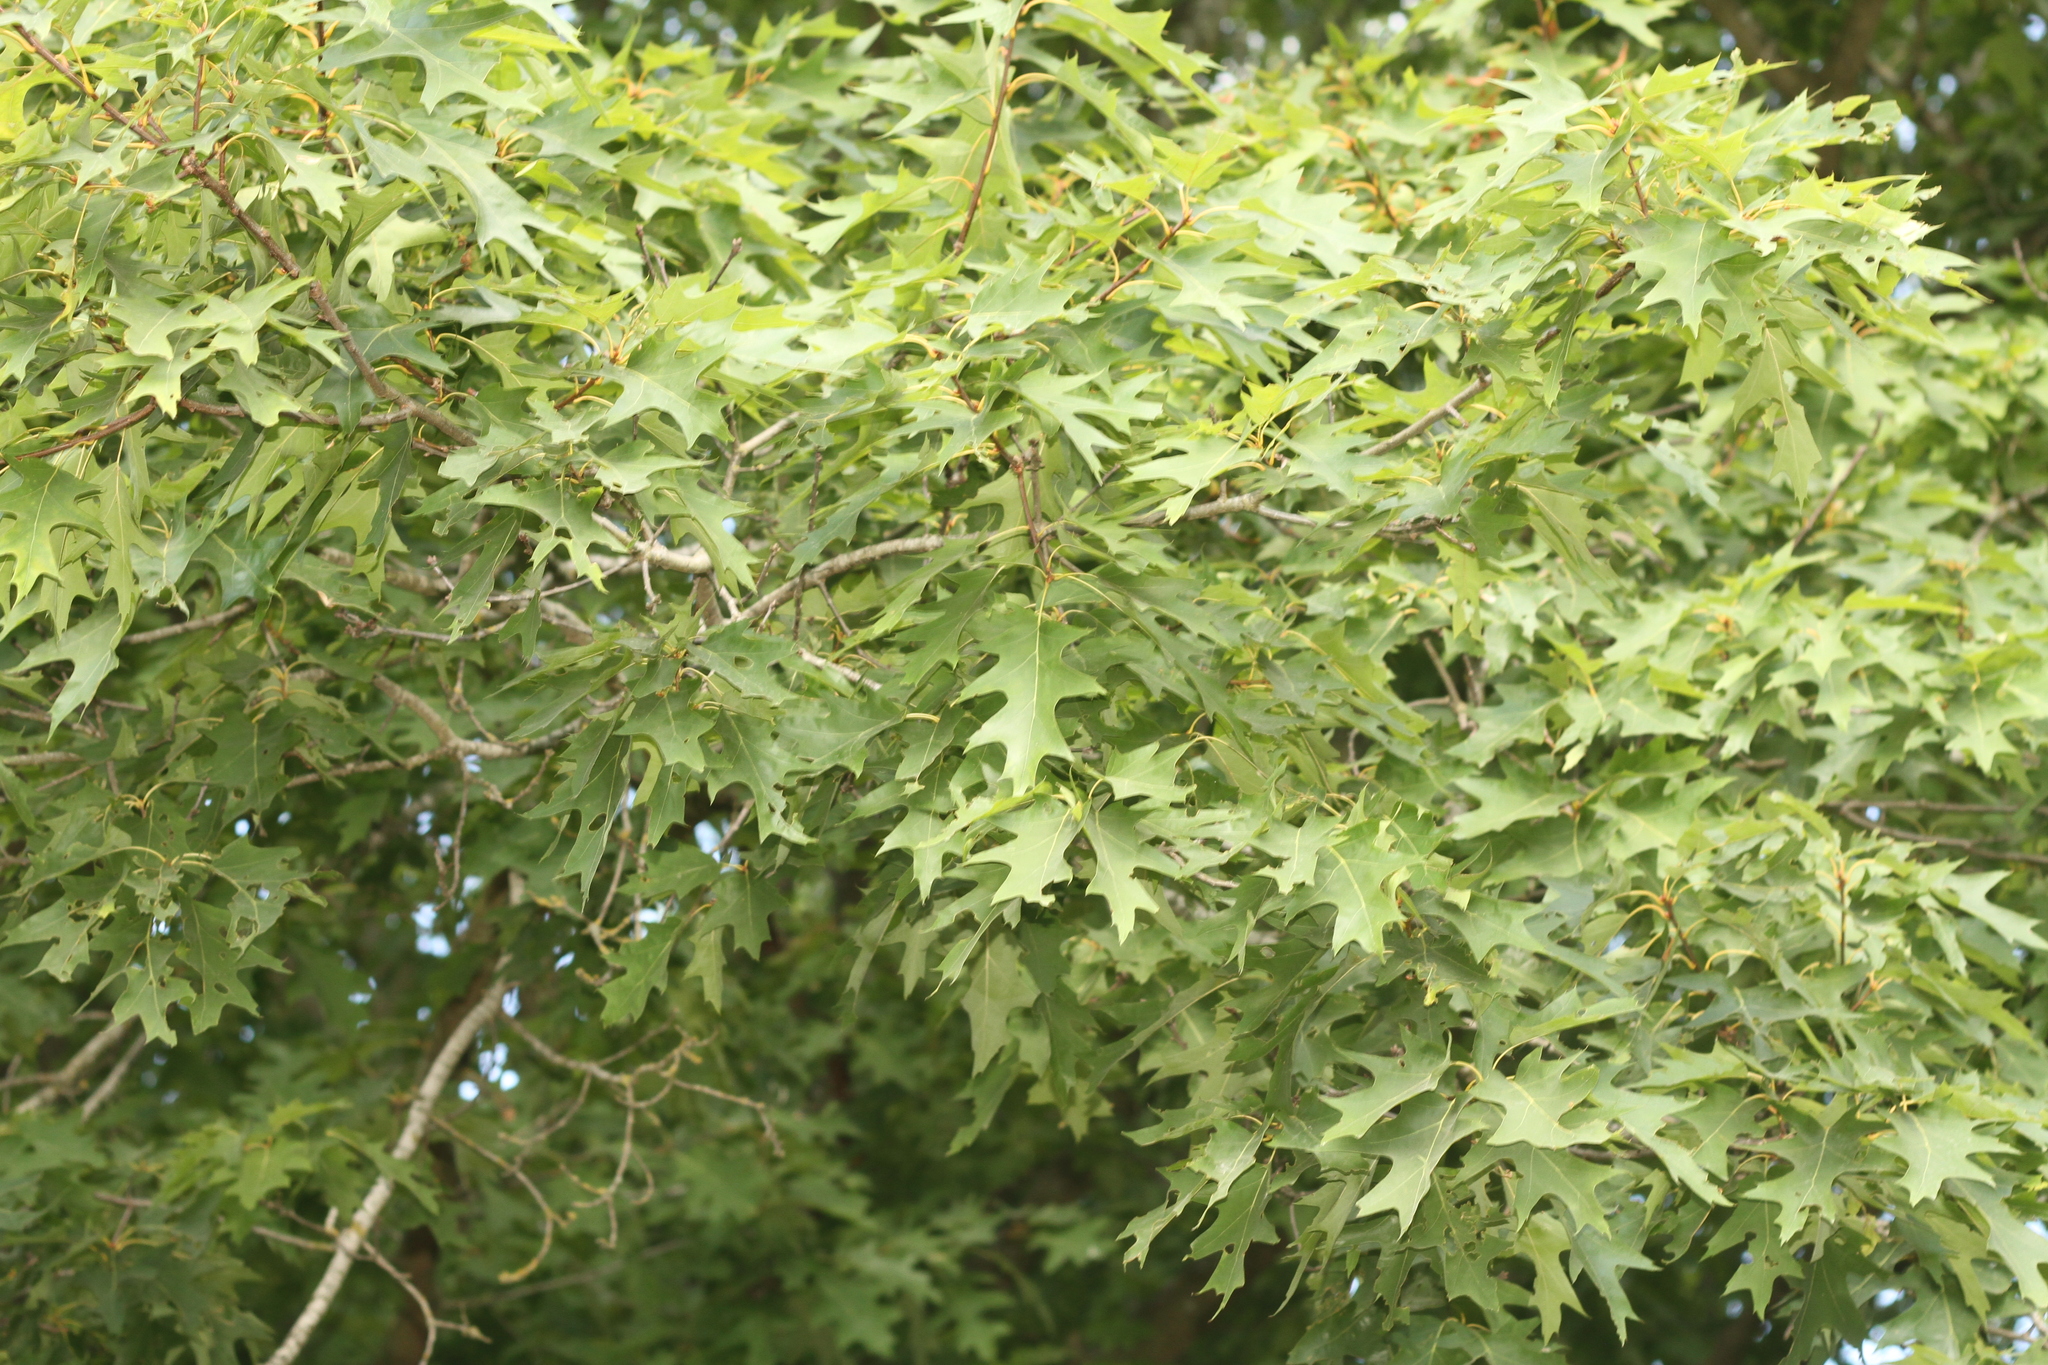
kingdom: Plantae
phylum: Tracheophyta
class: Magnoliopsida
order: Fagales
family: Fagaceae
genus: Quercus
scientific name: Quercus rubra
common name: Red oak
